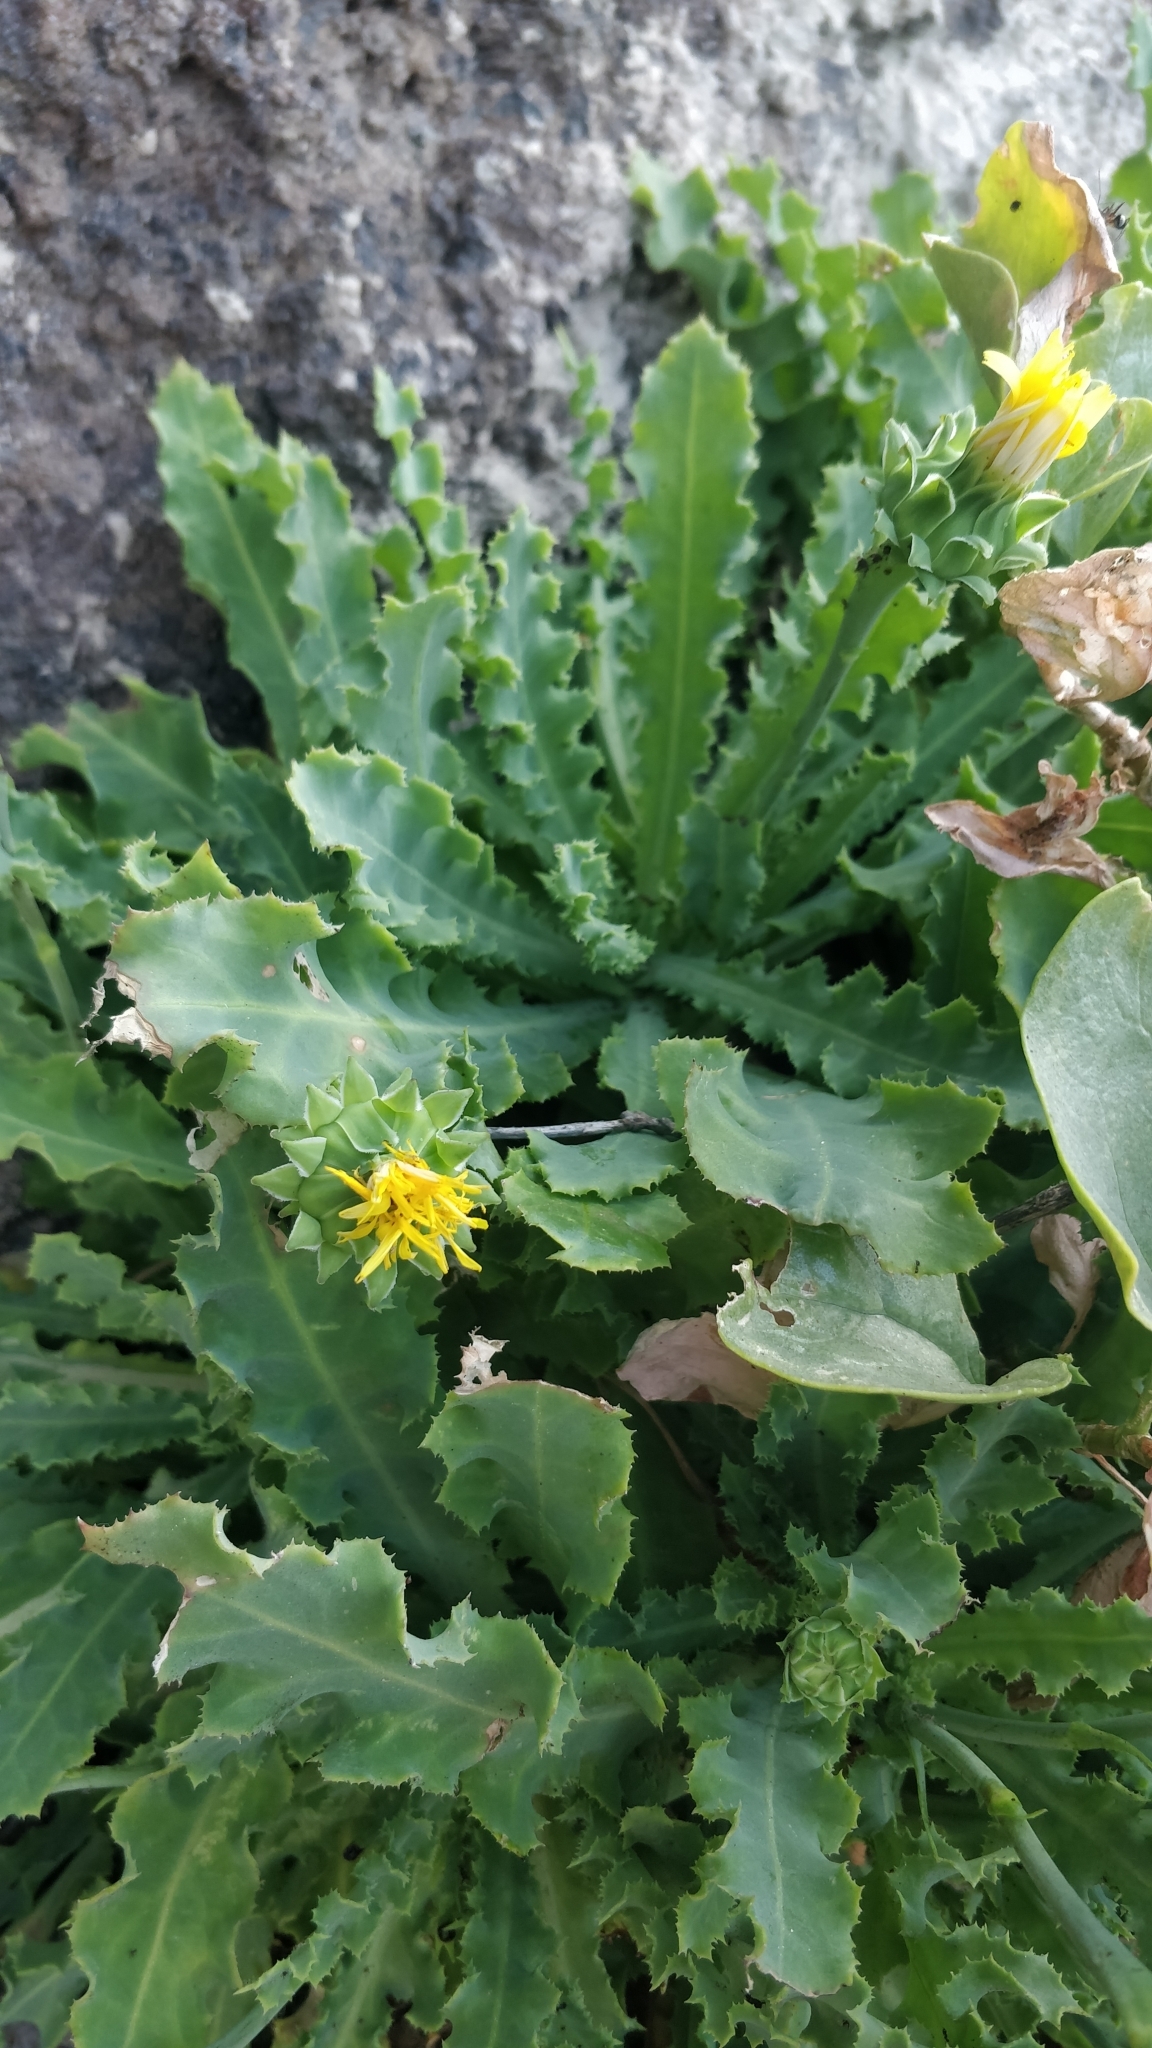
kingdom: Plantae
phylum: Tracheophyta
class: Magnoliopsida
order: Asterales
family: Asteraceae
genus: Reichardia
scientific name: Reichardia ligulata
